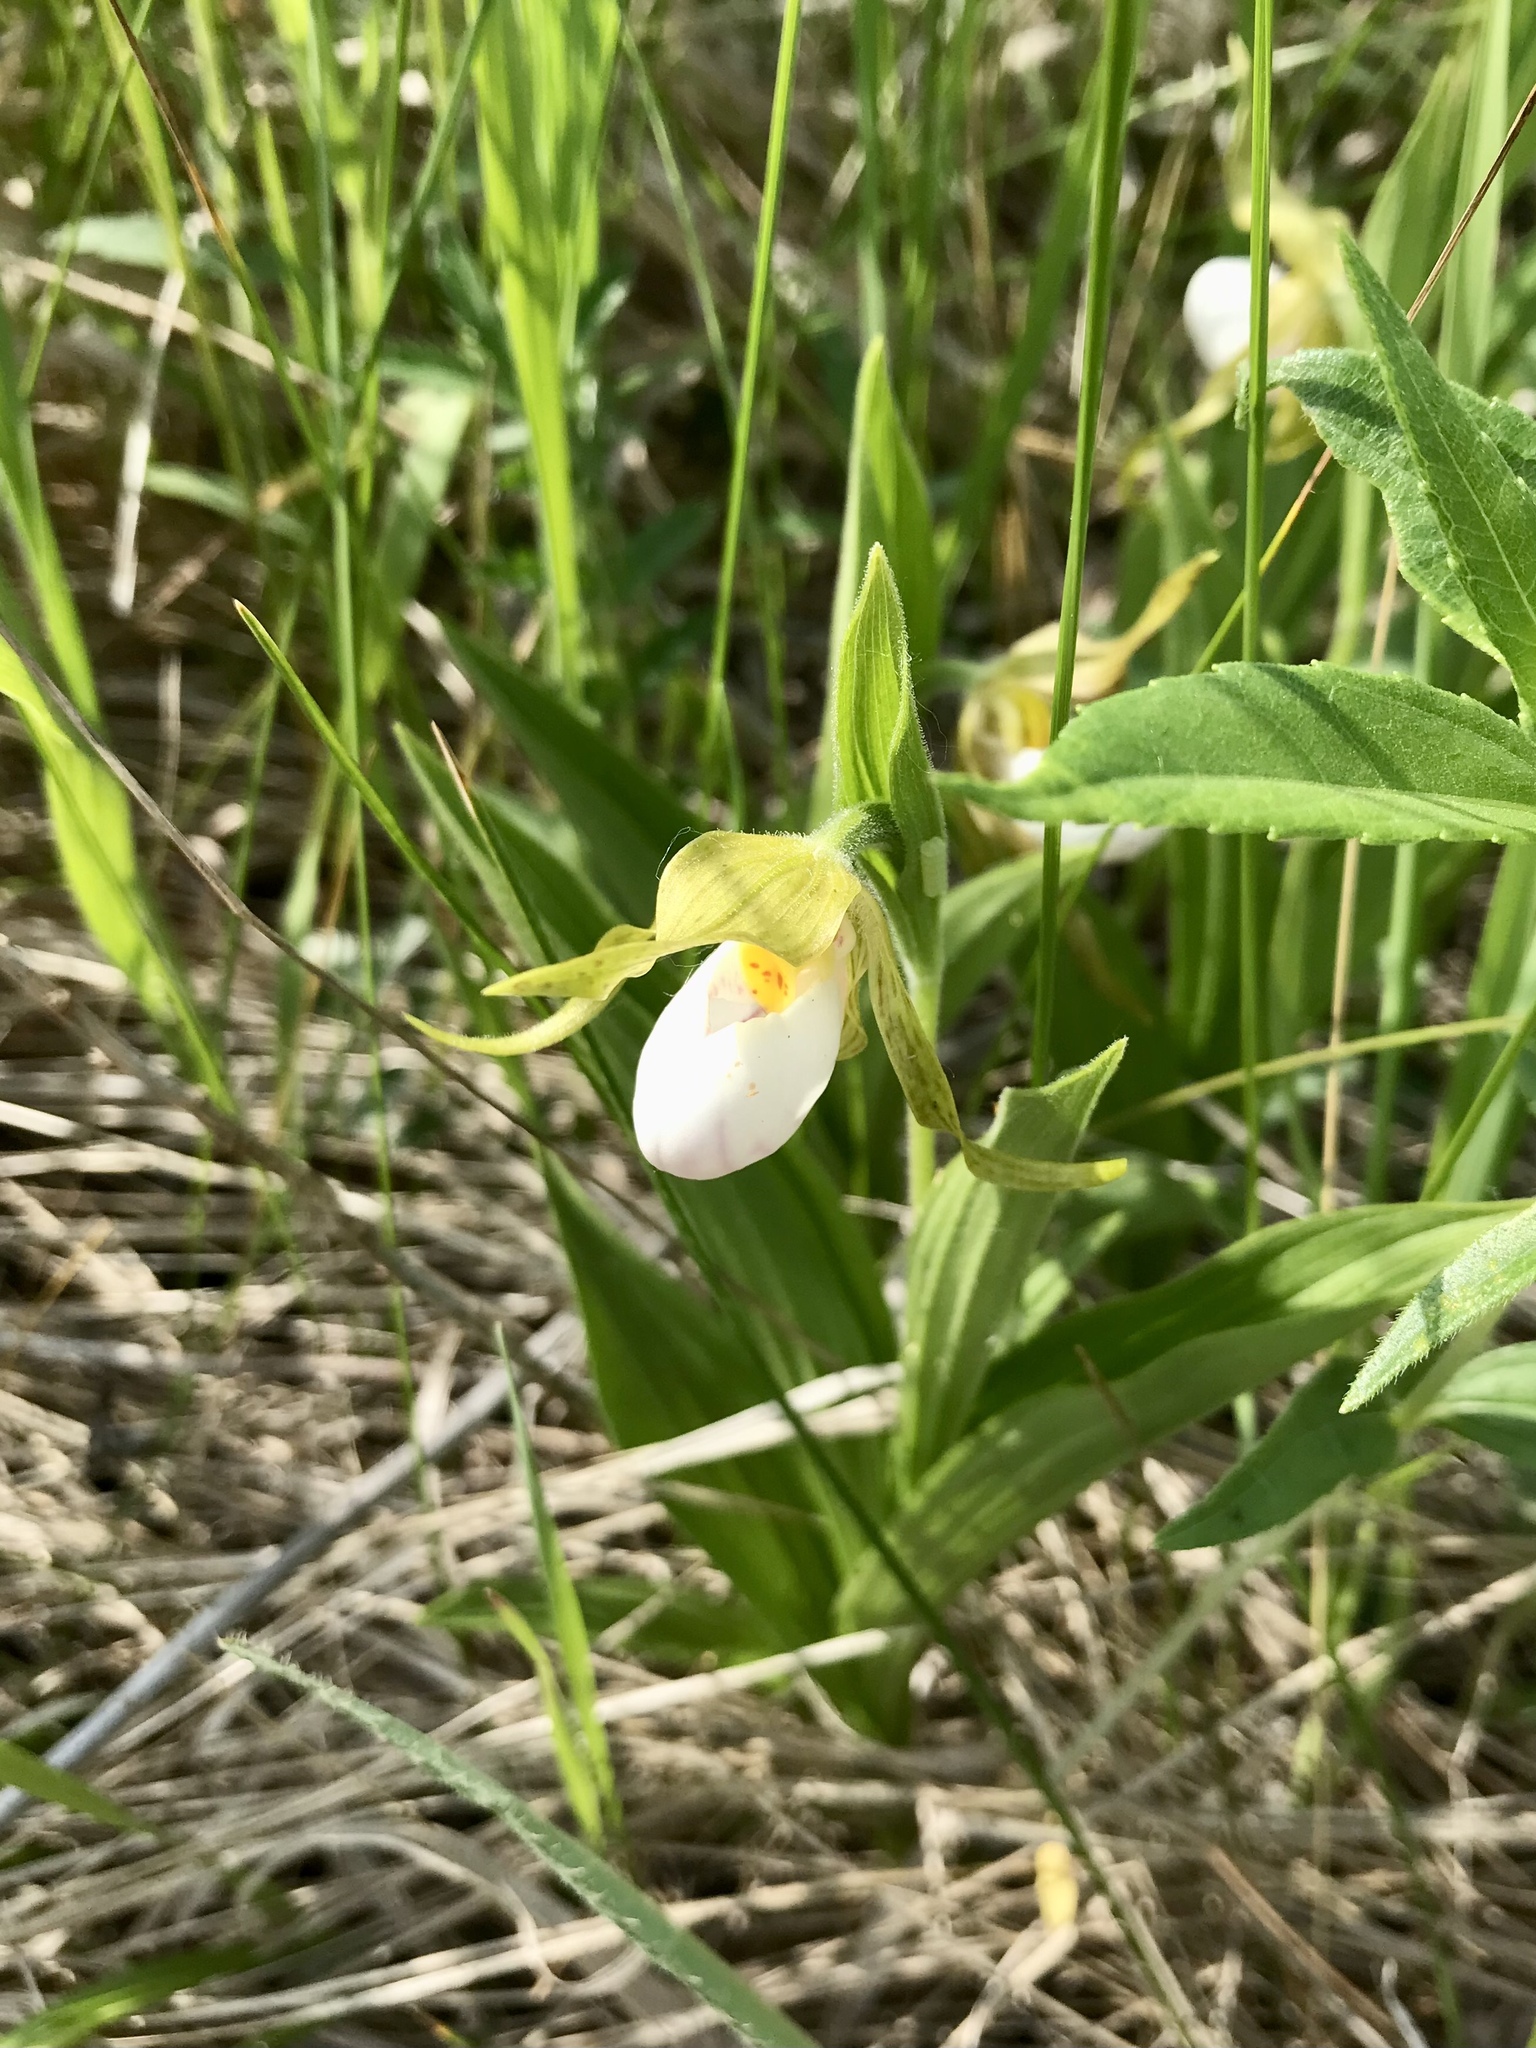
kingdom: Plantae
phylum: Tracheophyta
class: Liliopsida
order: Asparagales
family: Orchidaceae
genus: Cypripedium
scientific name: Cypripedium candidum
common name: White lady's-slipper
